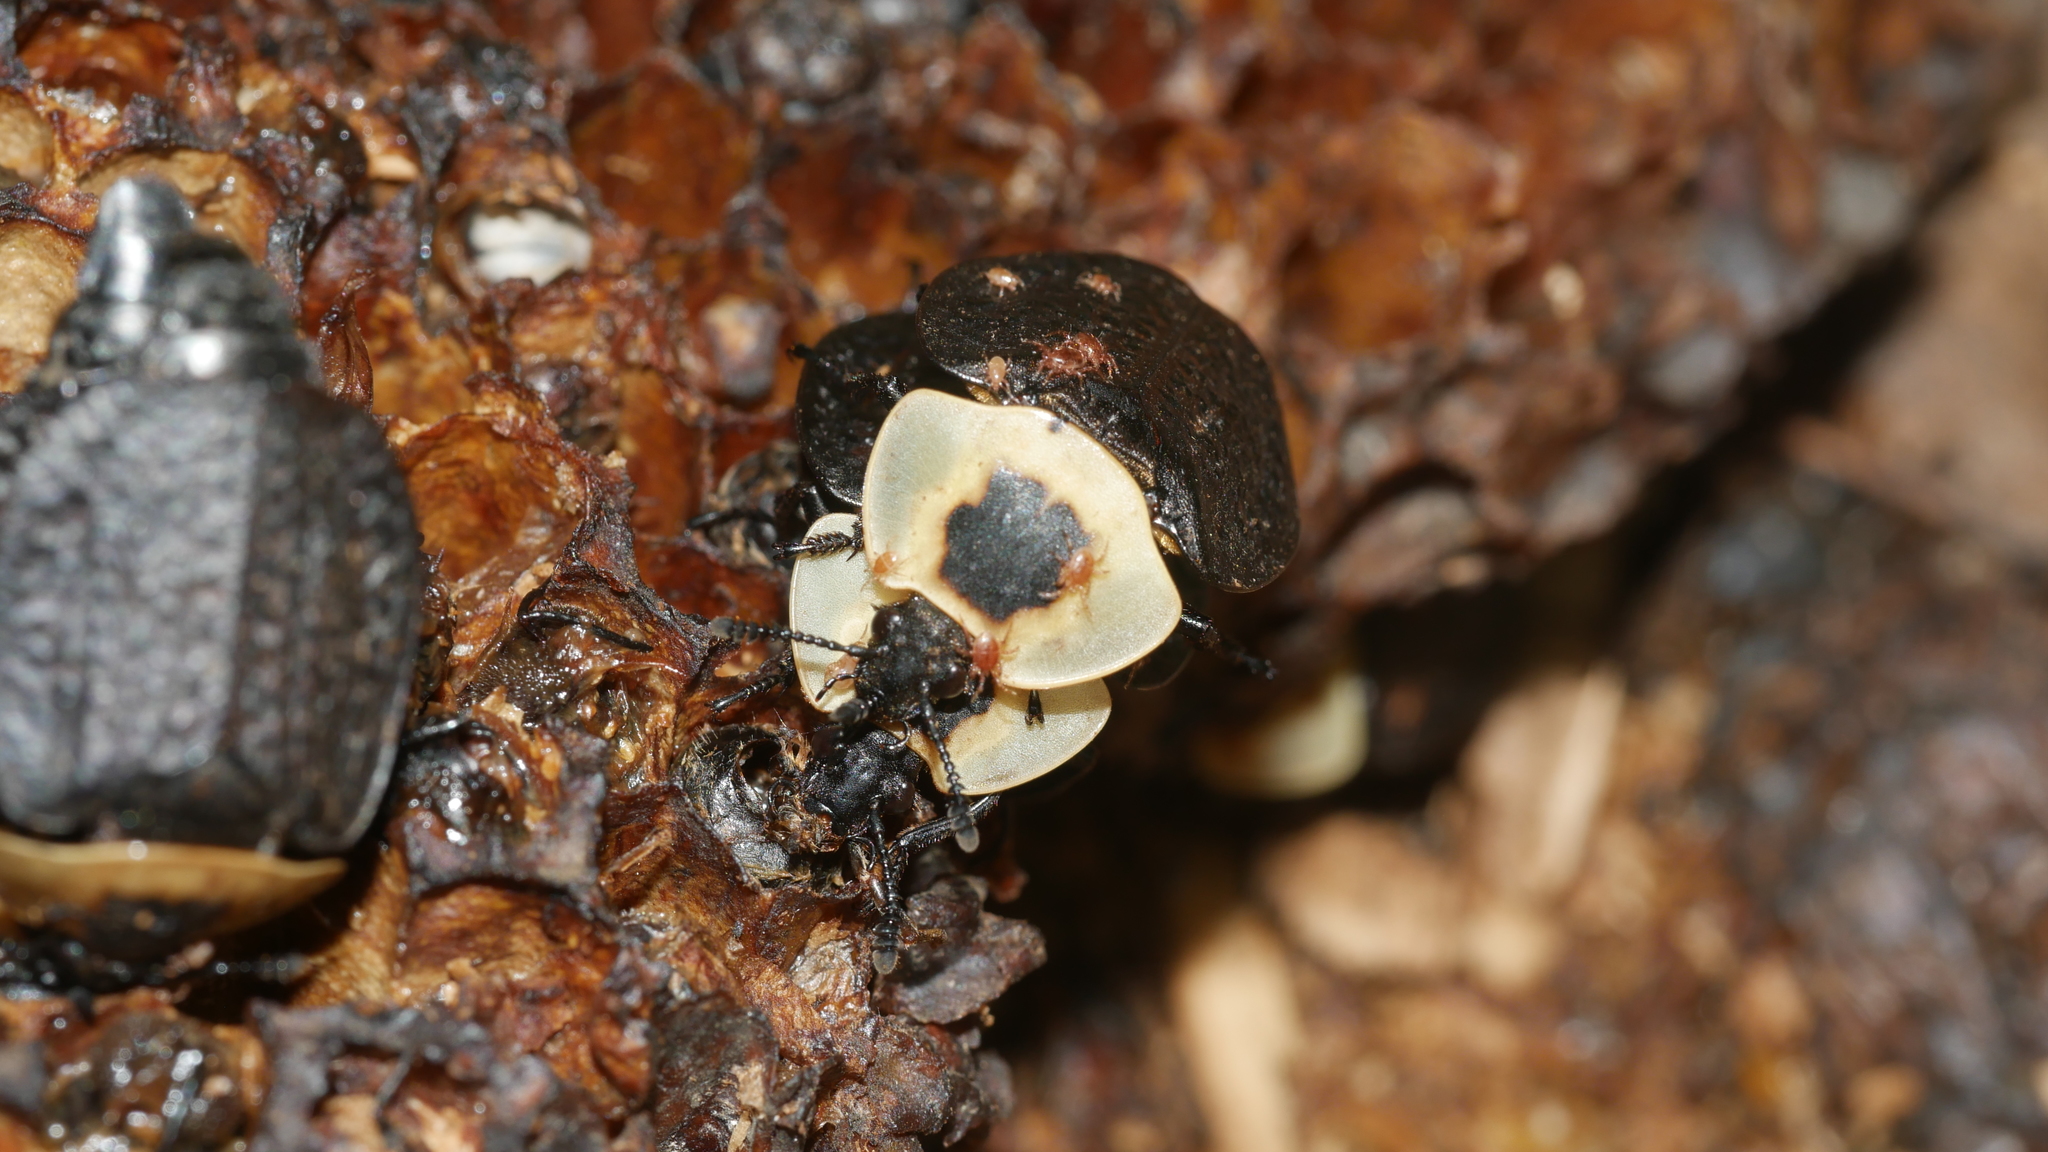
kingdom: Animalia
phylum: Arthropoda
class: Insecta
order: Coleoptera
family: Staphylinidae
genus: Necrophila
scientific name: Necrophila americana
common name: American carrion beetle
